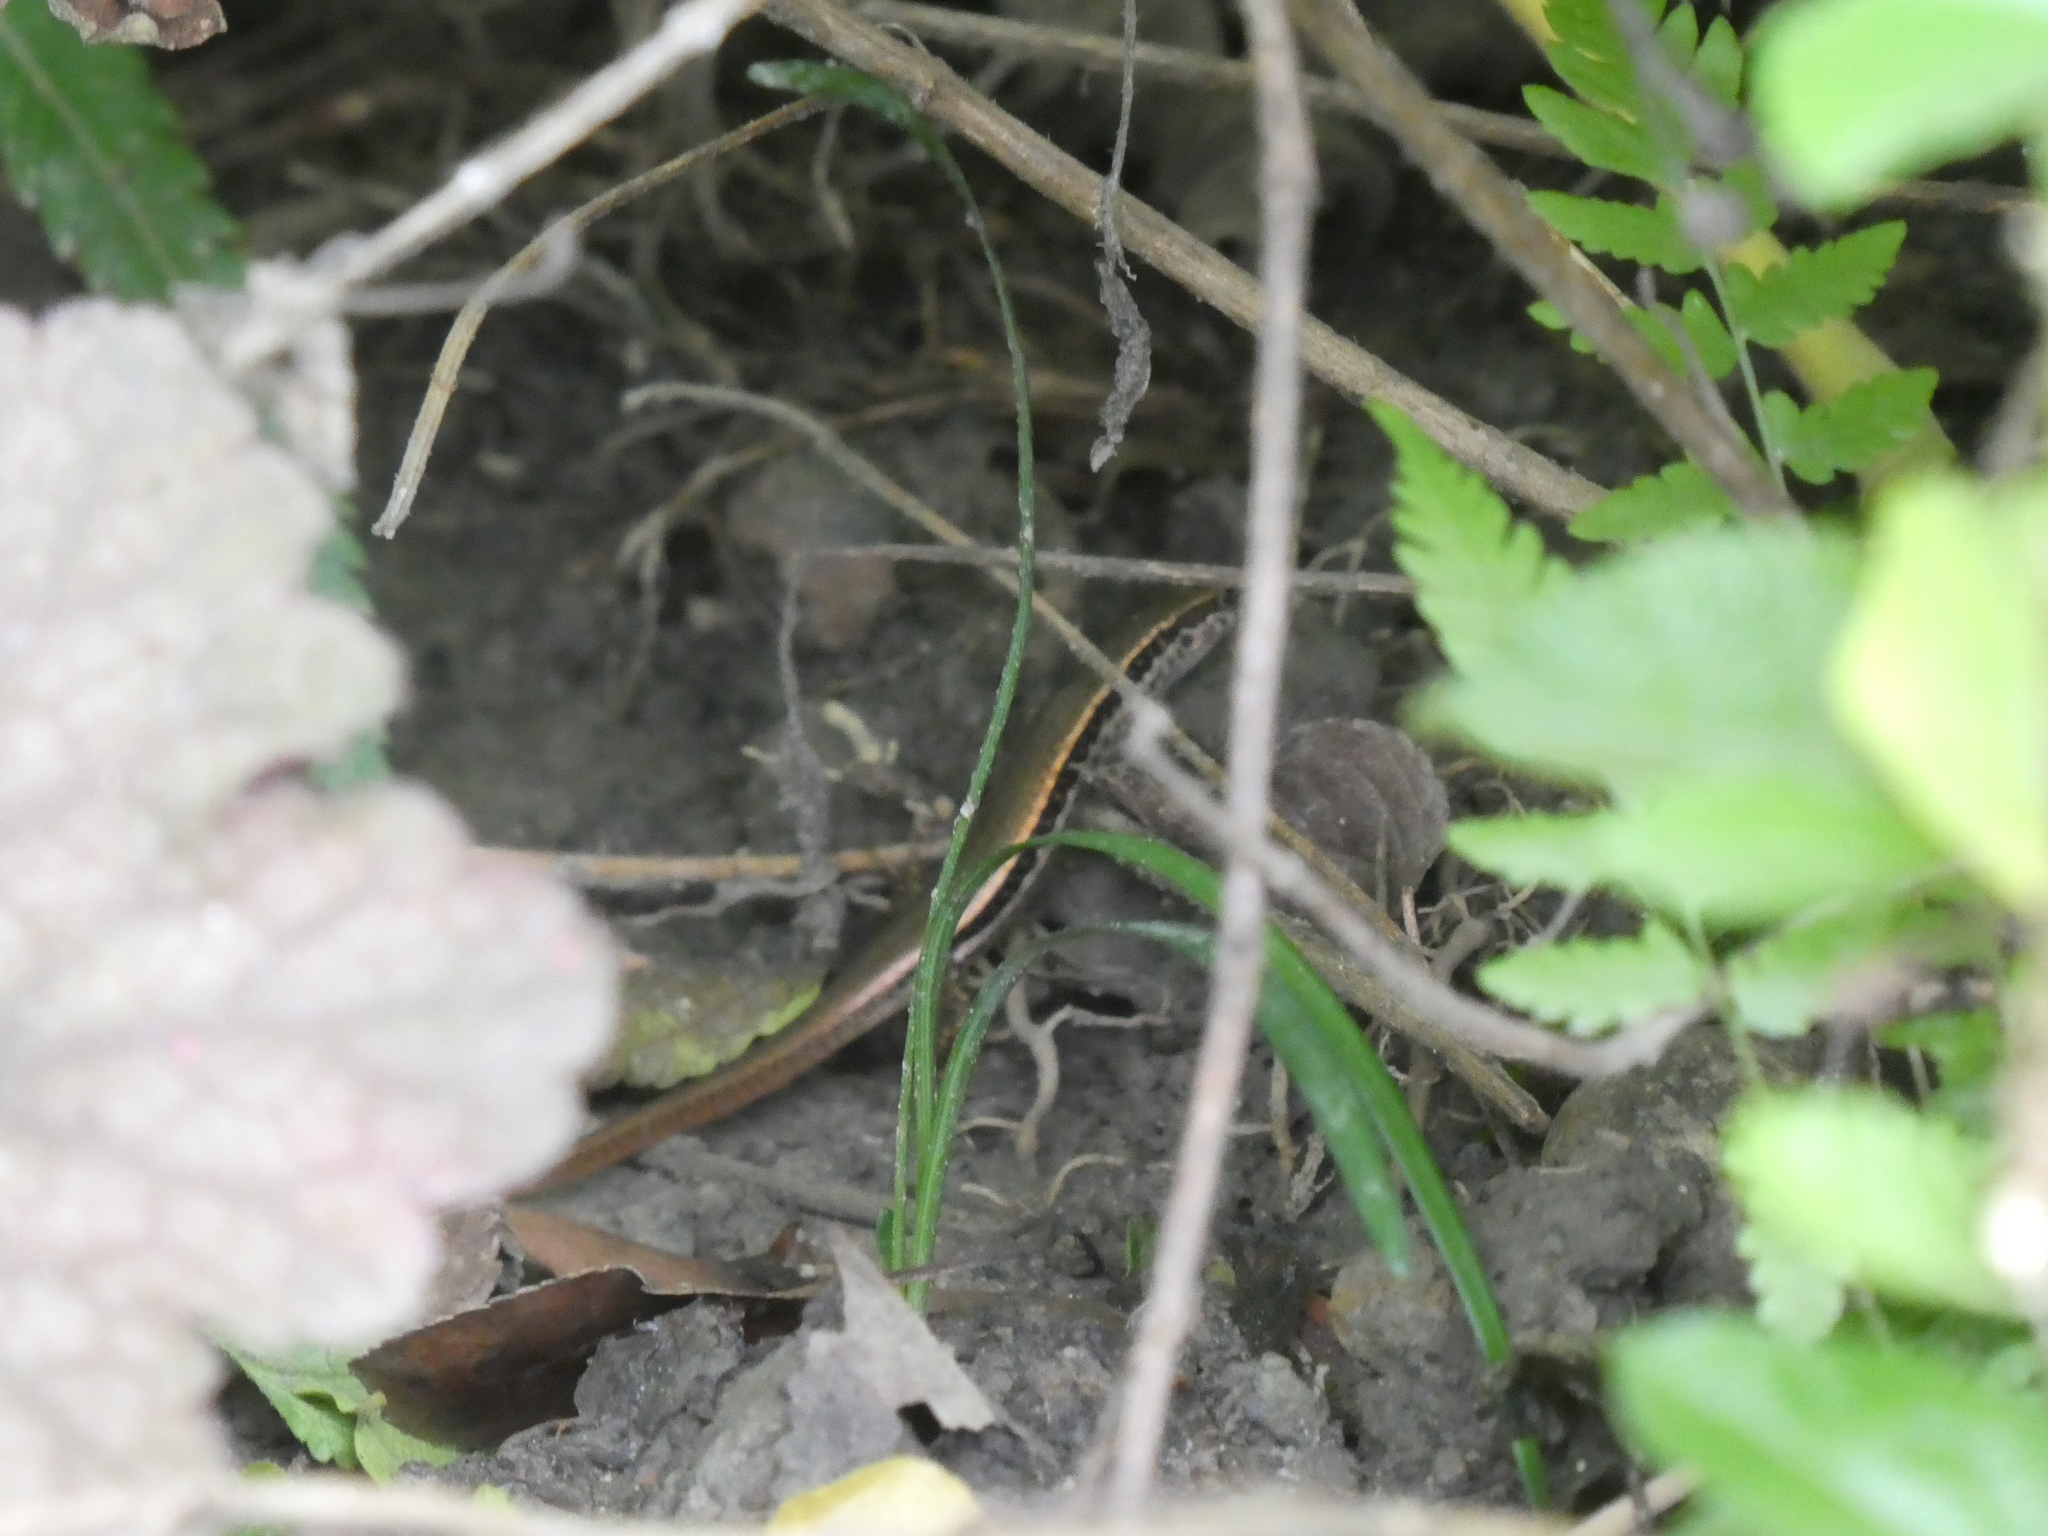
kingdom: Animalia
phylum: Chordata
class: Squamata
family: Scincidae
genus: Sphenomorphus
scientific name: Sphenomorphus indicus
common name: Himalayan forest skink
